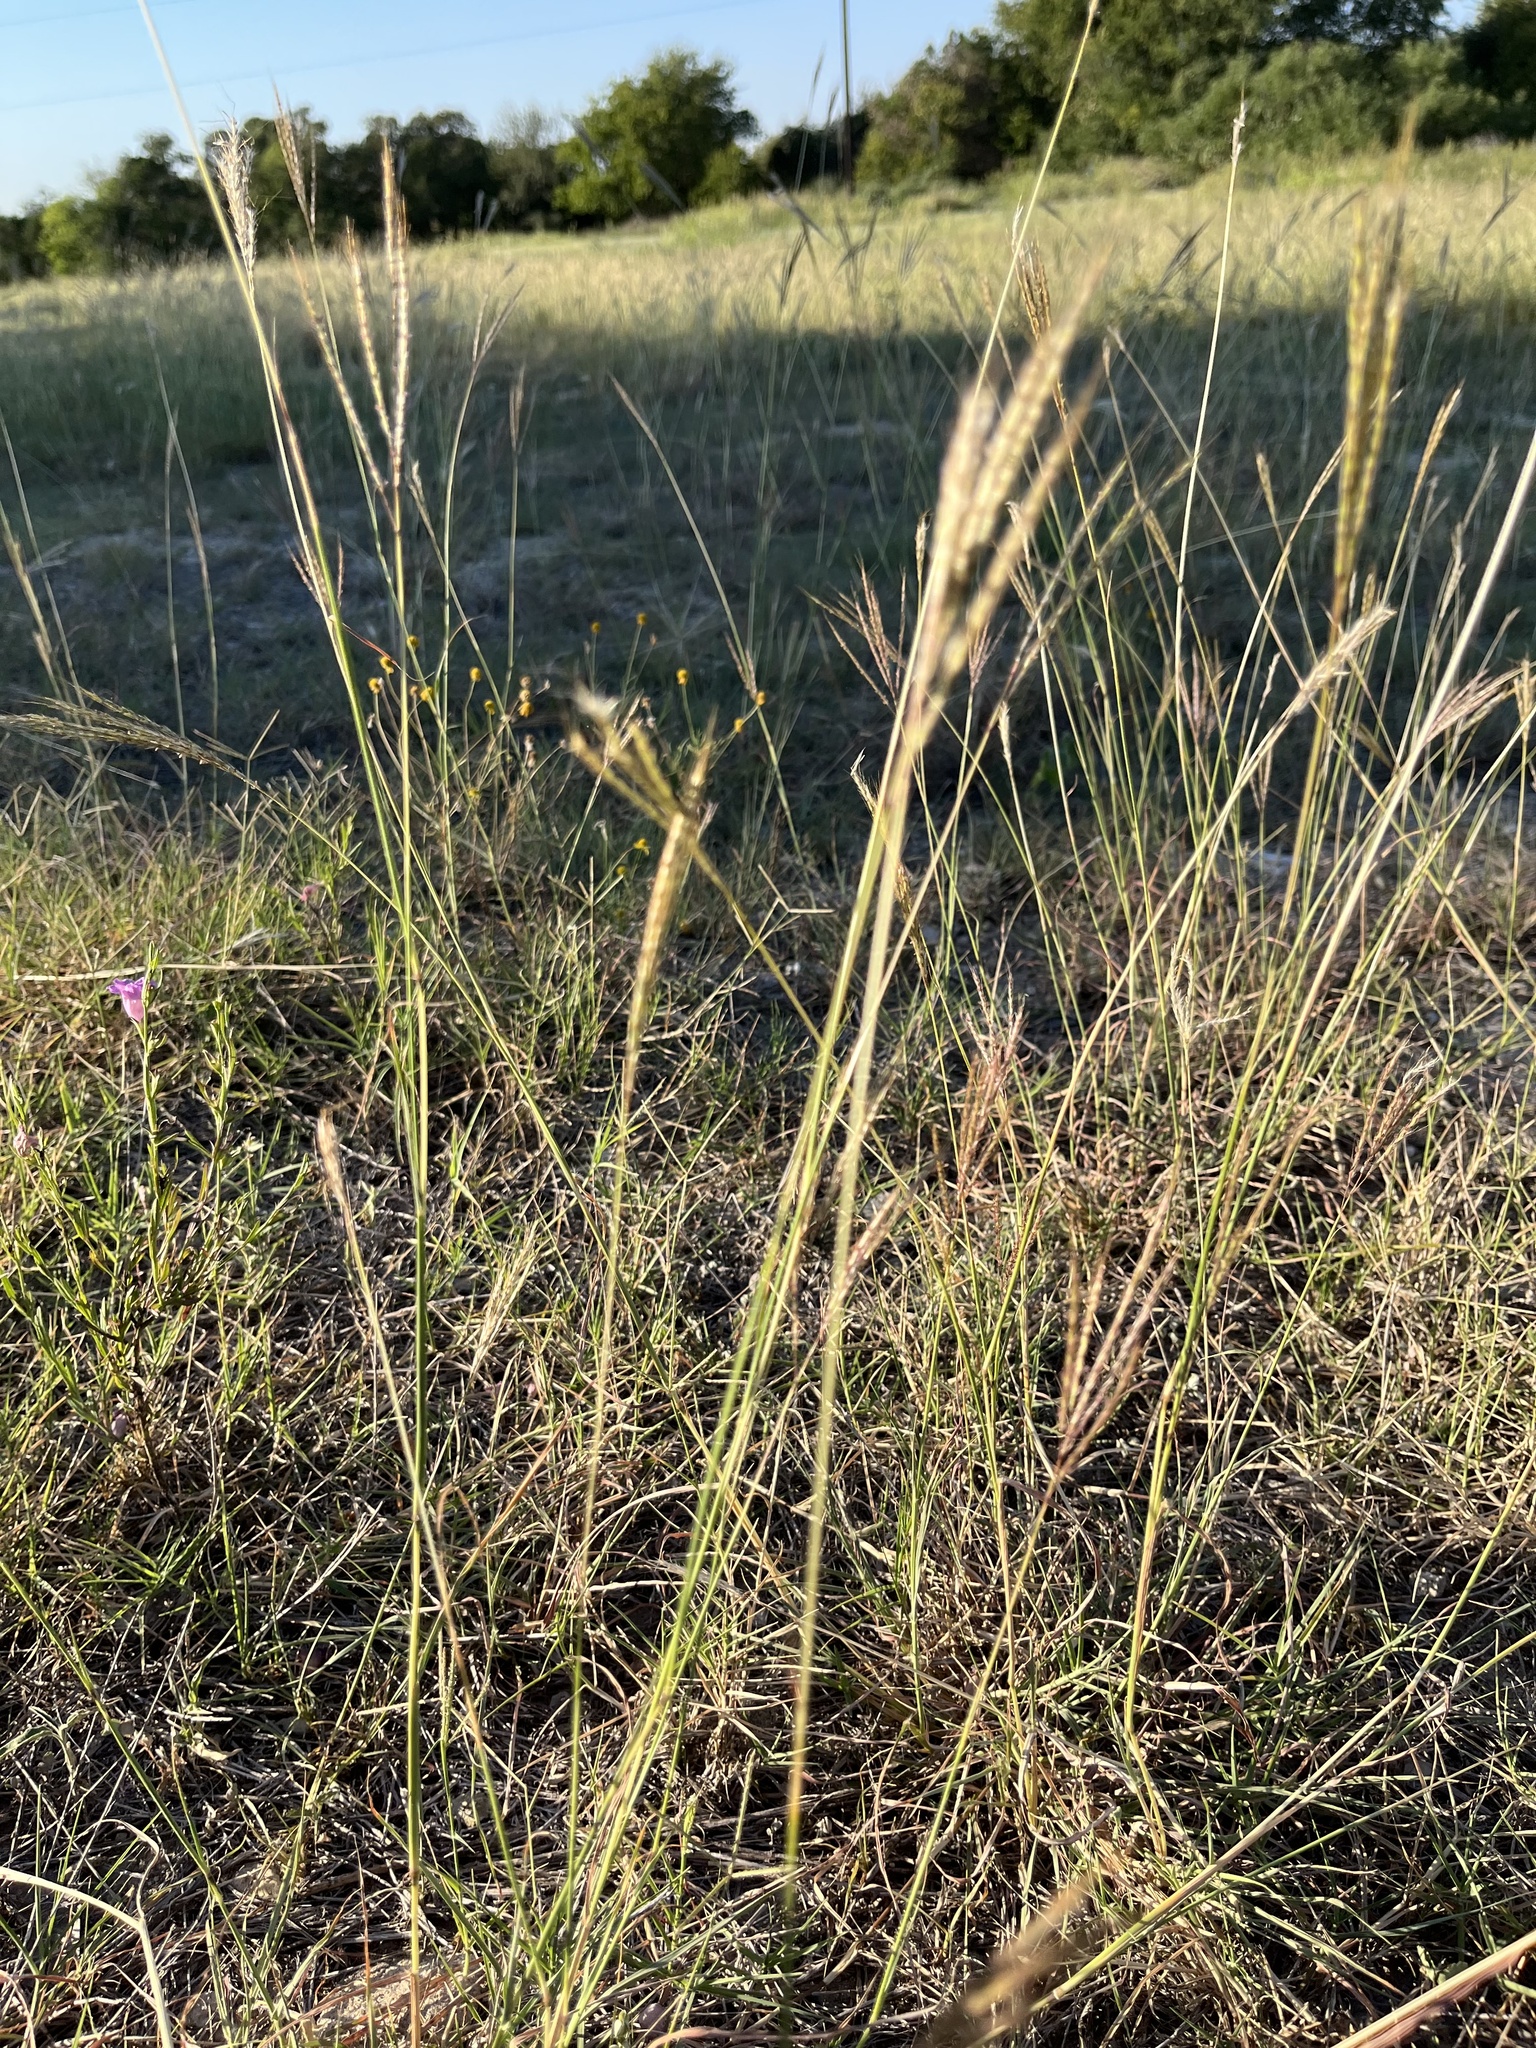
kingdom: Plantae
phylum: Tracheophyta
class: Liliopsida
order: Poales
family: Poaceae
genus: Bothriochloa
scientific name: Bothriochloa ischaemum
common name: Yellow bluestem
